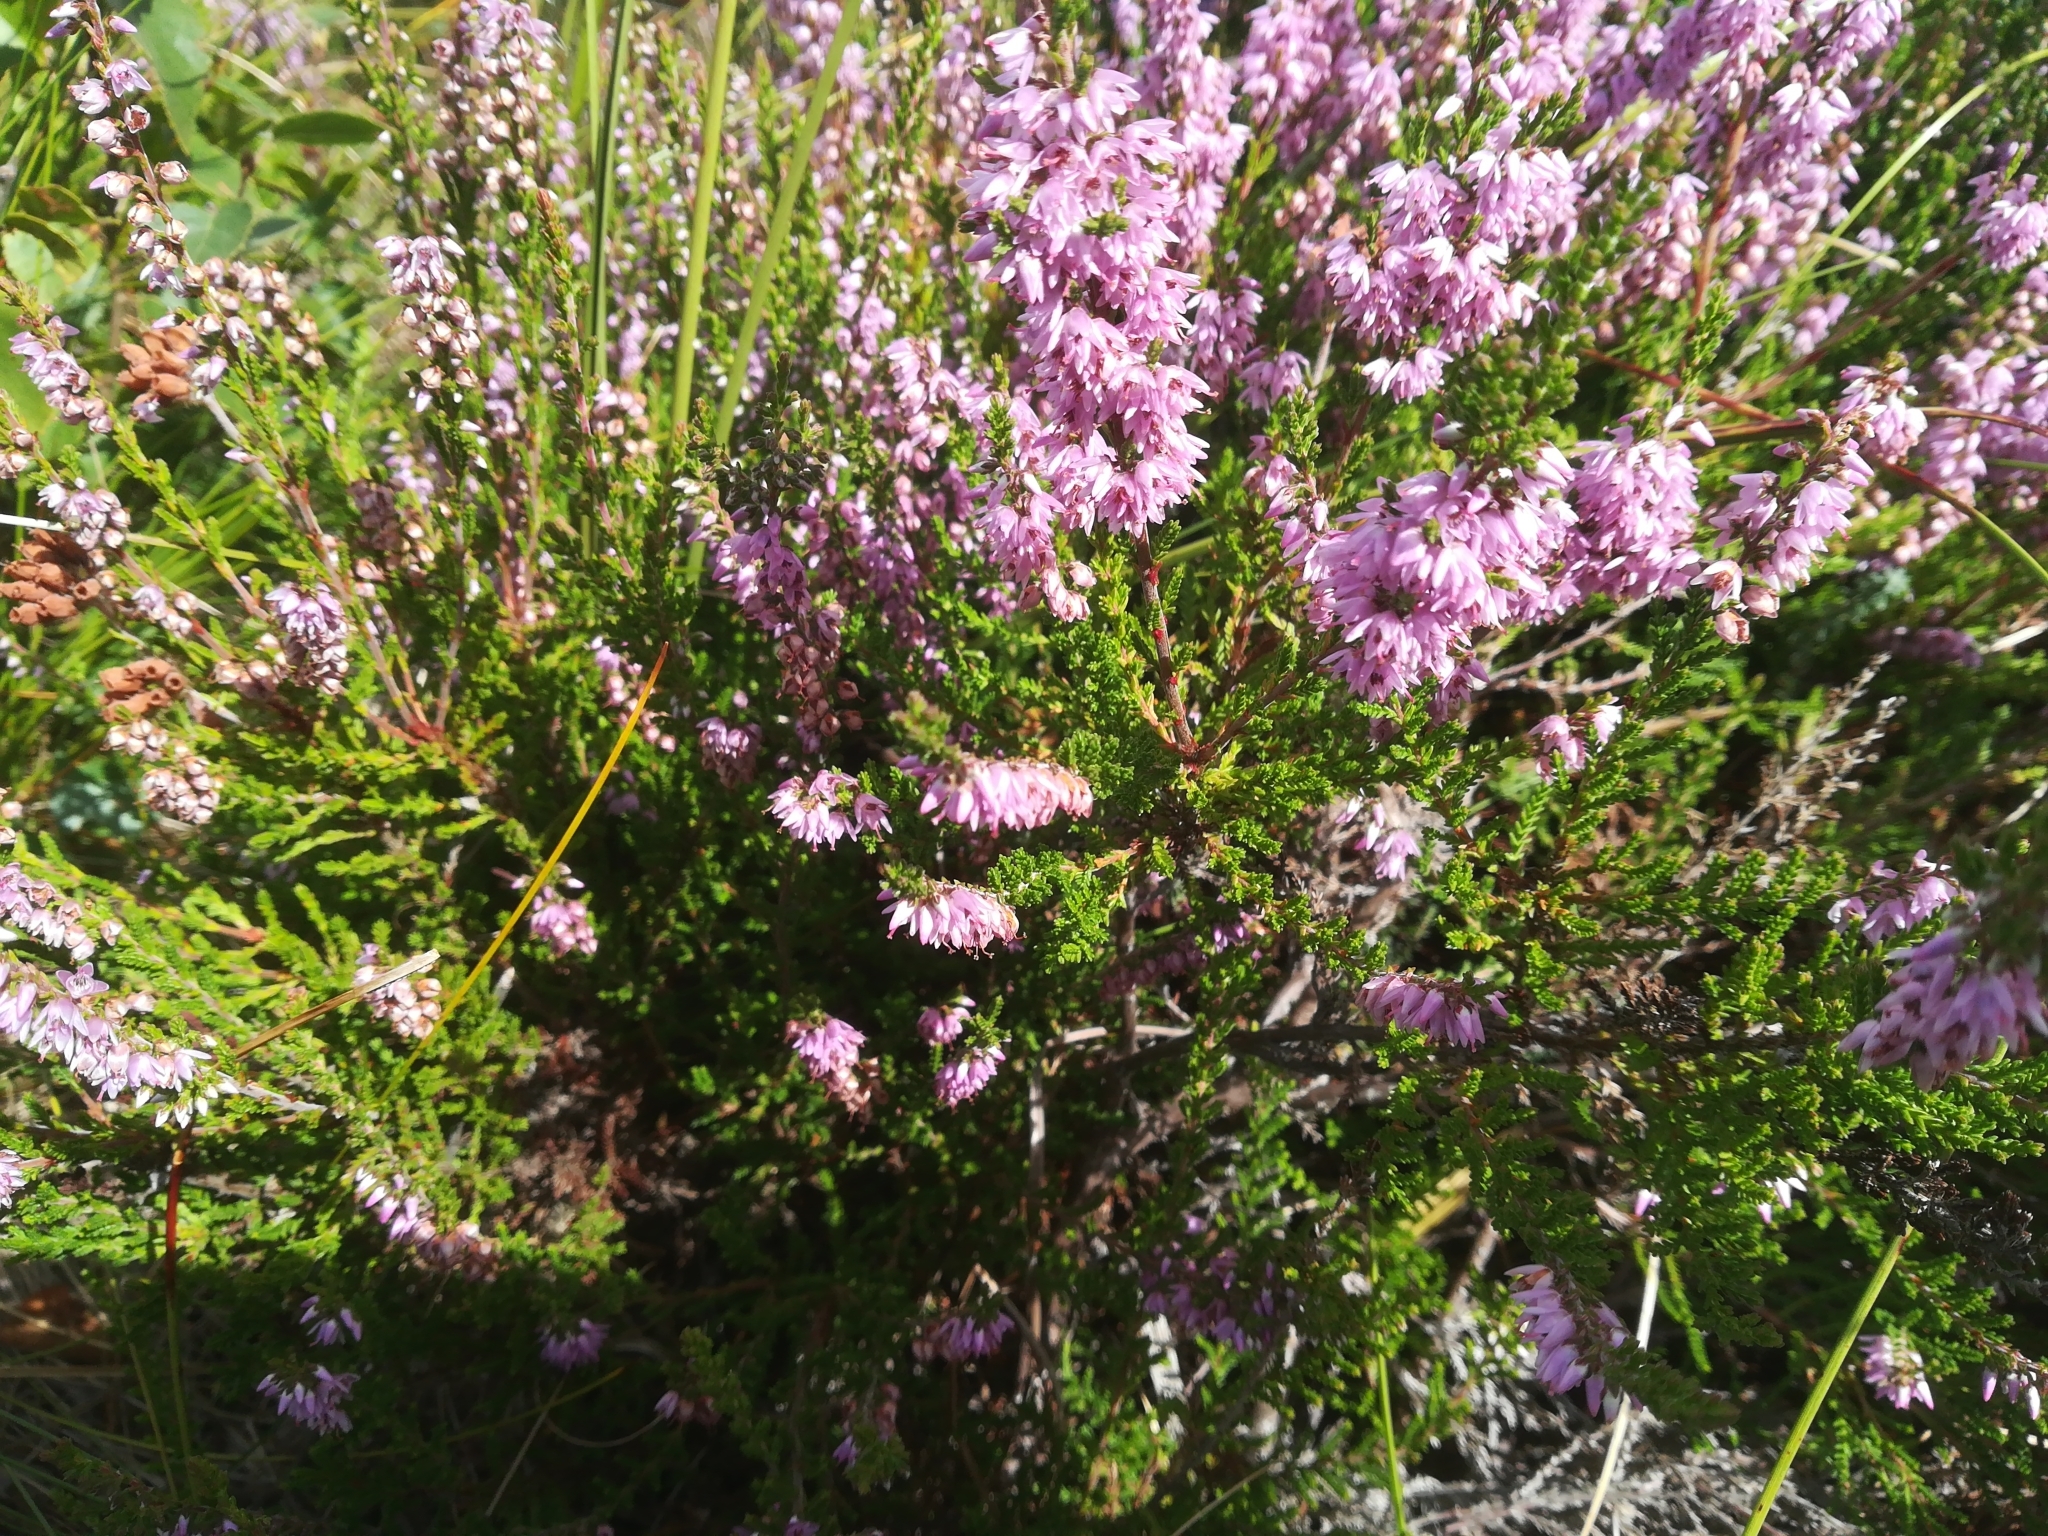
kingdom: Plantae
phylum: Tracheophyta
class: Magnoliopsida
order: Ericales
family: Ericaceae
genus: Calluna
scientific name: Calluna vulgaris
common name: Heather
